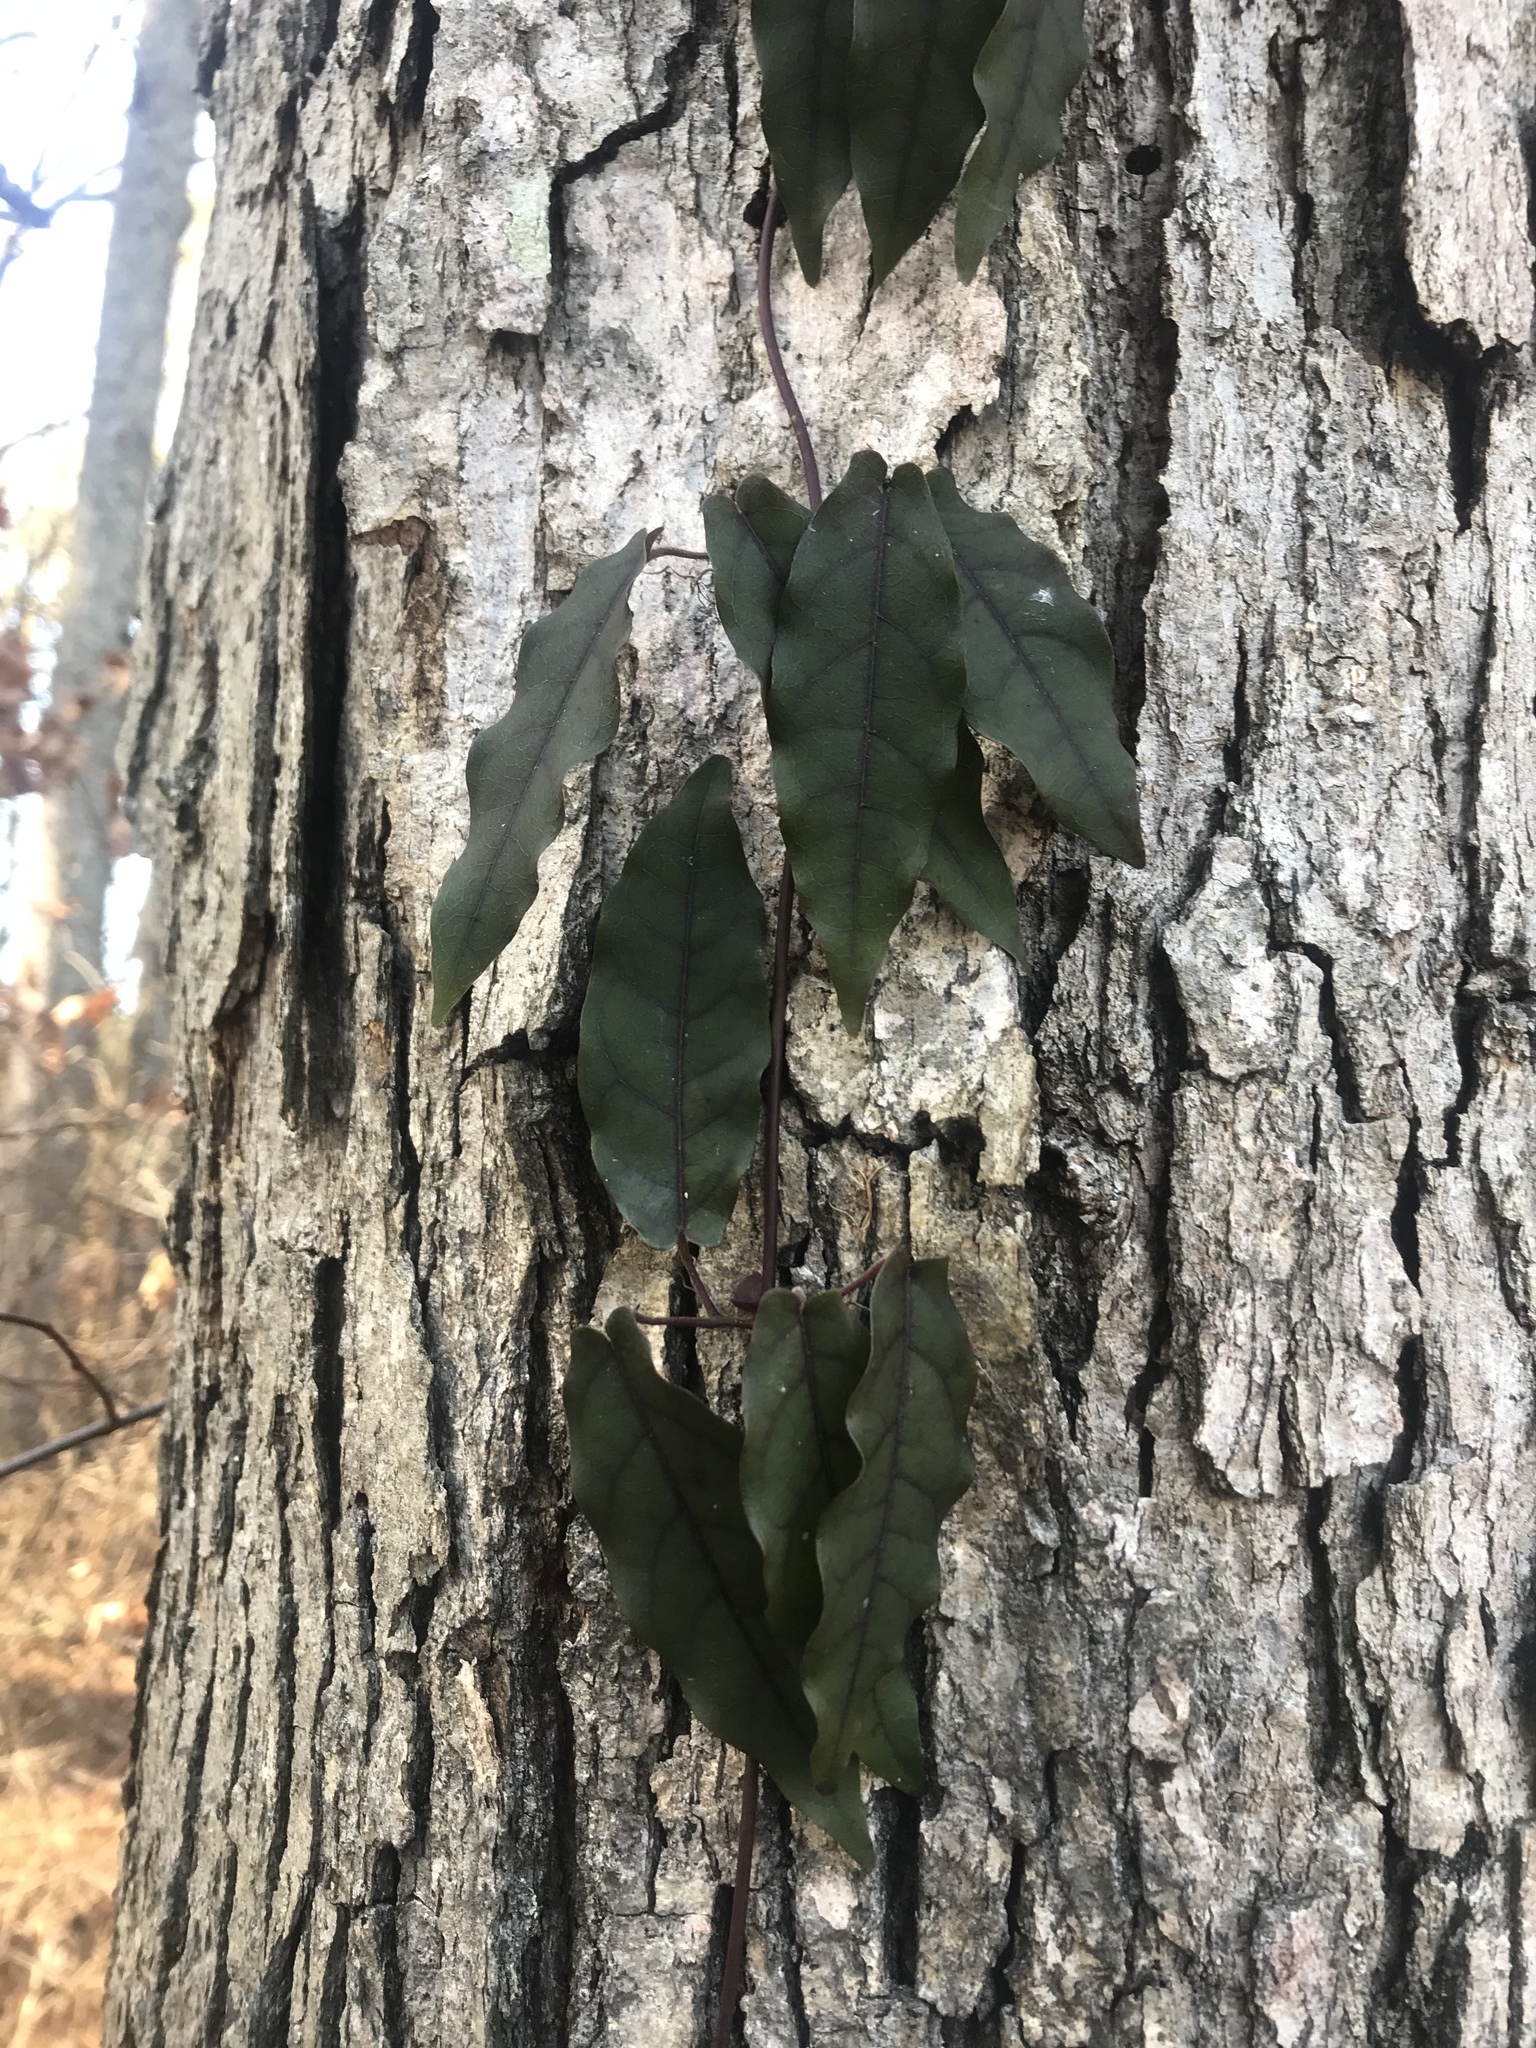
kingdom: Plantae
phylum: Tracheophyta
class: Magnoliopsida
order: Lamiales
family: Bignoniaceae
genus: Bignonia
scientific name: Bignonia capreolata
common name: Crossvine
